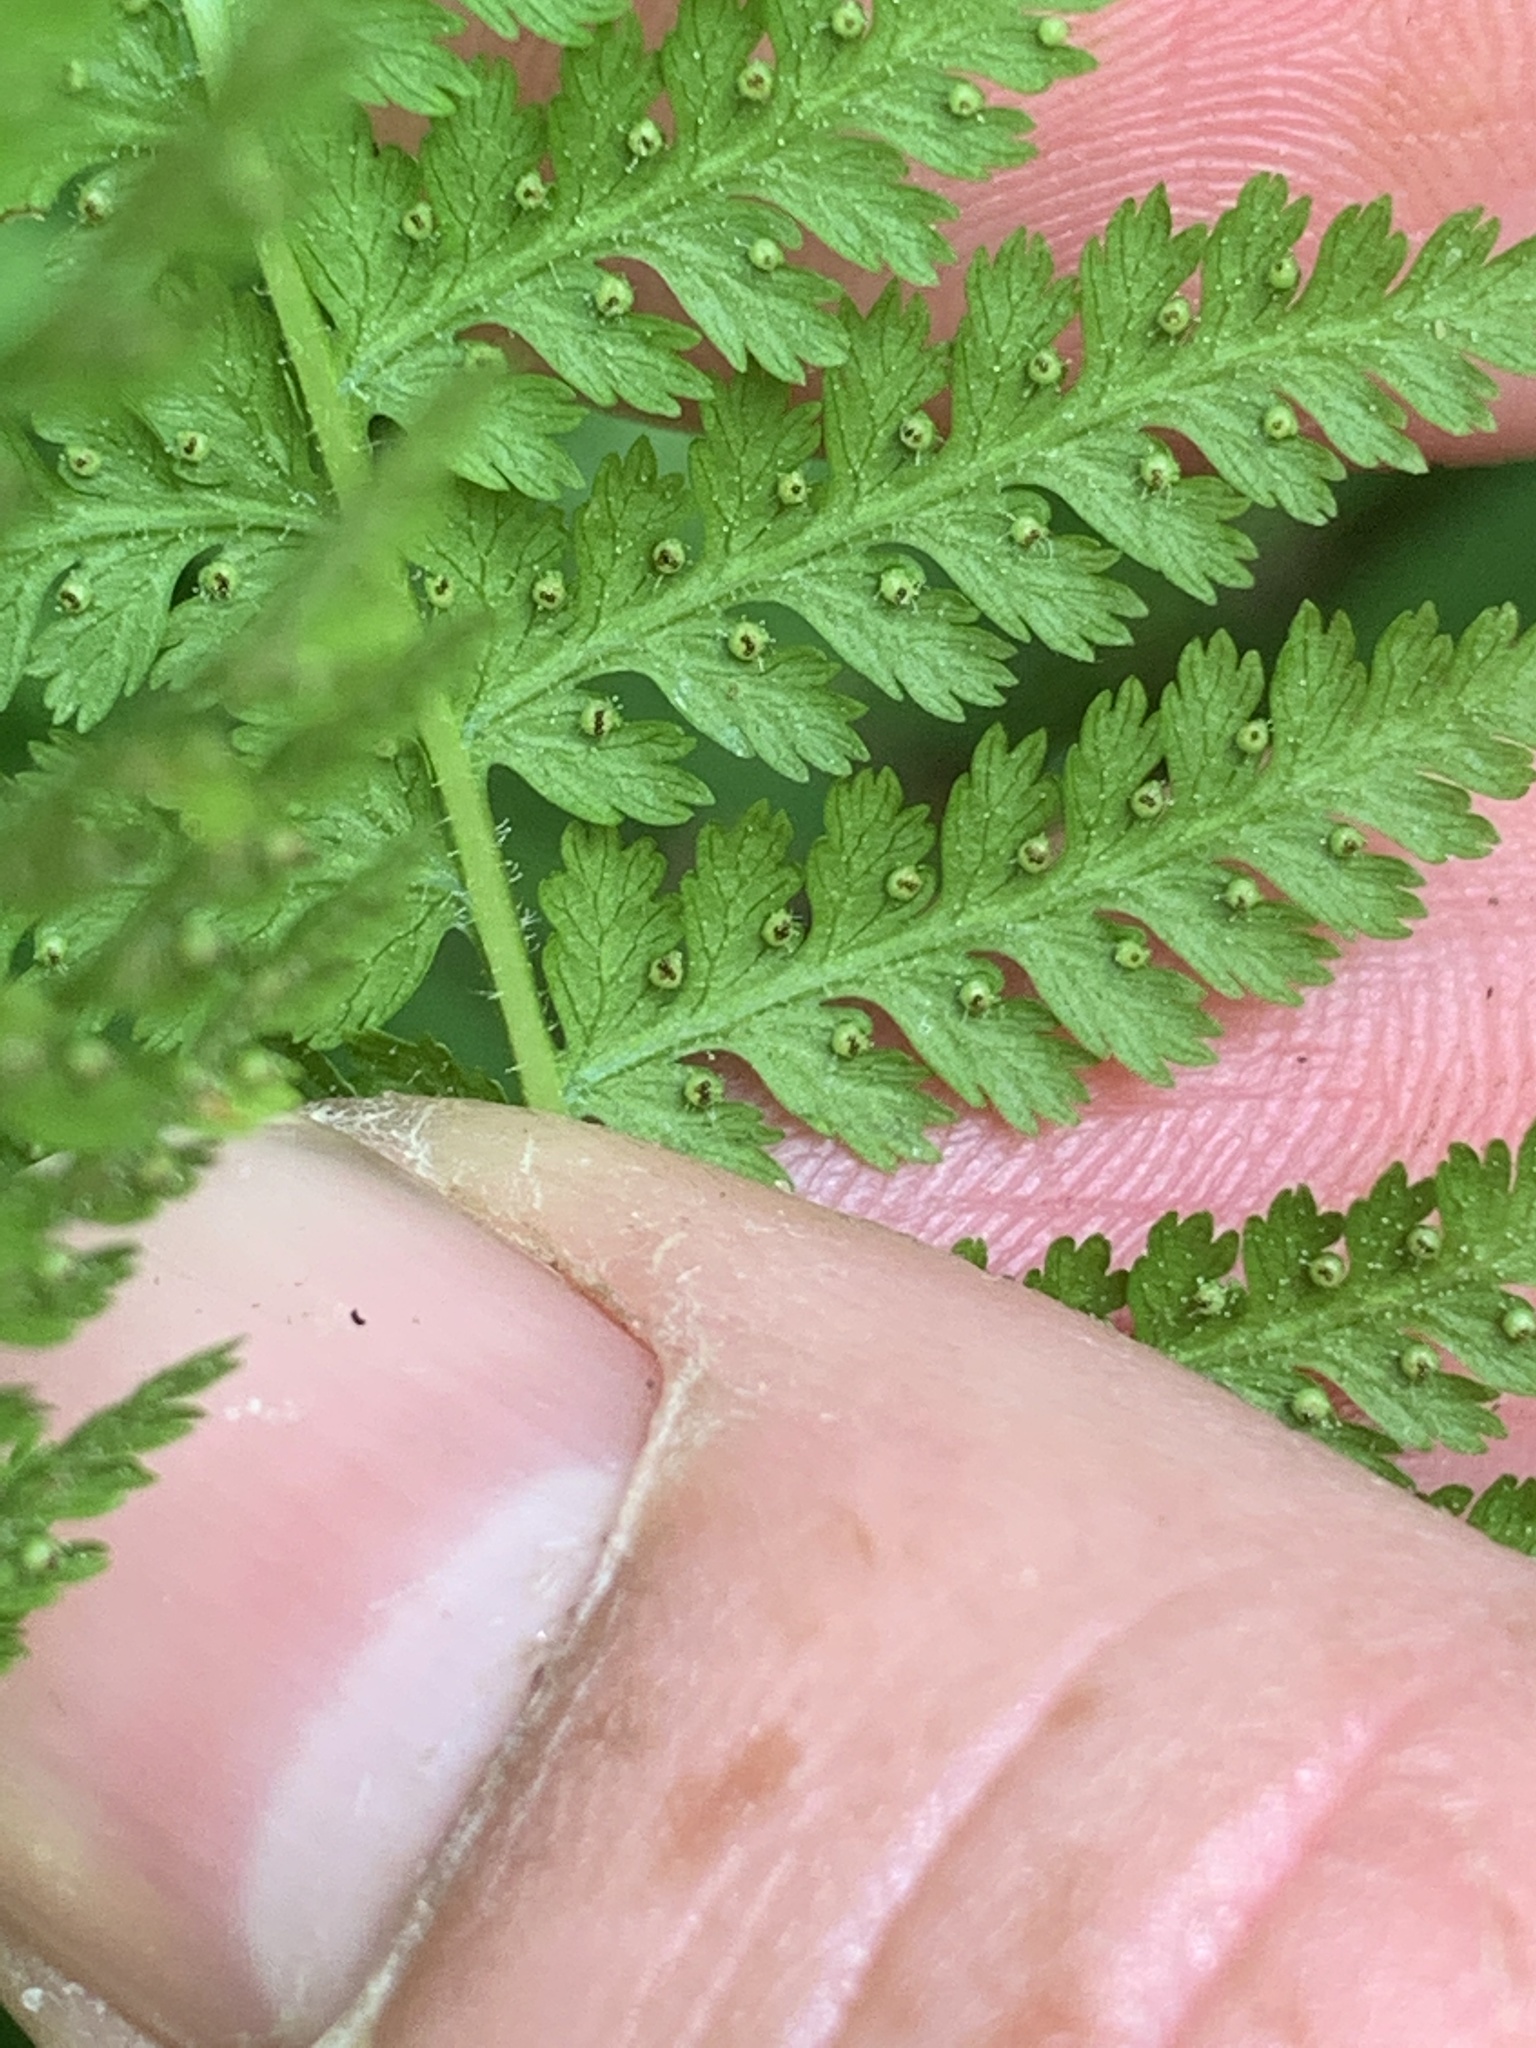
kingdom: Plantae
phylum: Tracheophyta
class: Polypodiopsida
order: Polypodiales
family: Dennstaedtiaceae
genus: Sitobolium
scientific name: Sitobolium punctilobum
